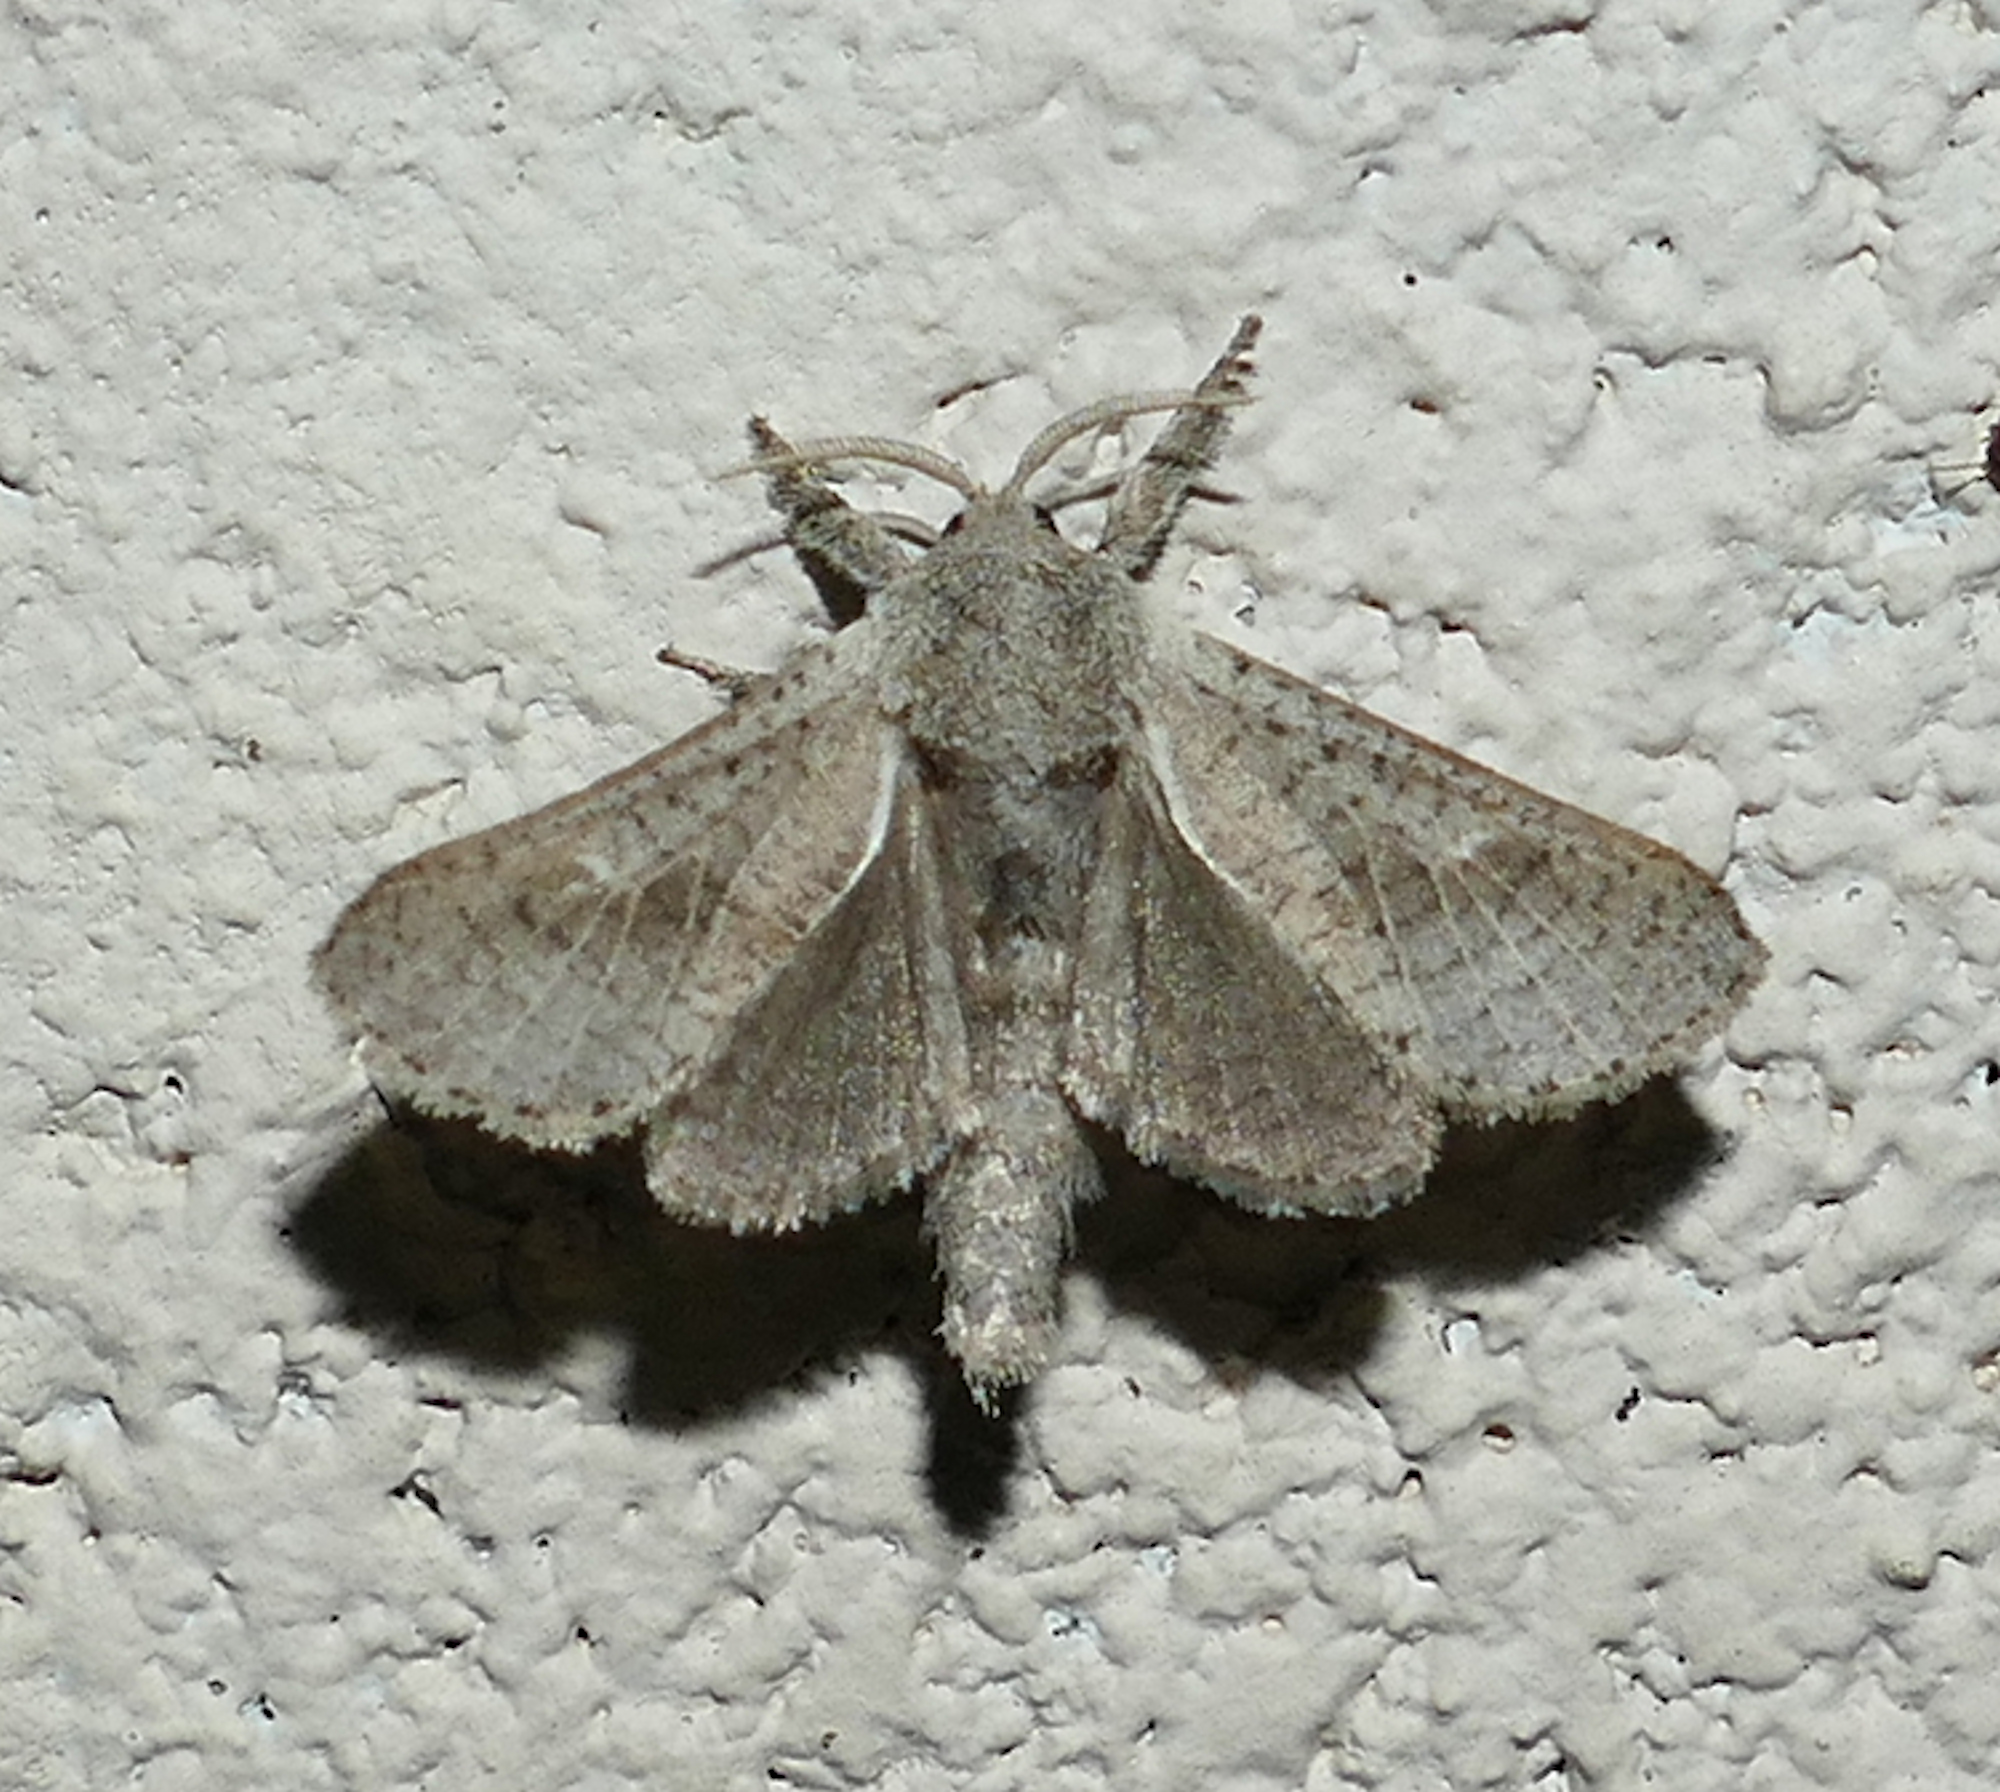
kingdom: Animalia
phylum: Arthropoda
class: Insecta
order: Lepidoptera
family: Cossidae
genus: Givira
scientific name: Givira anna
